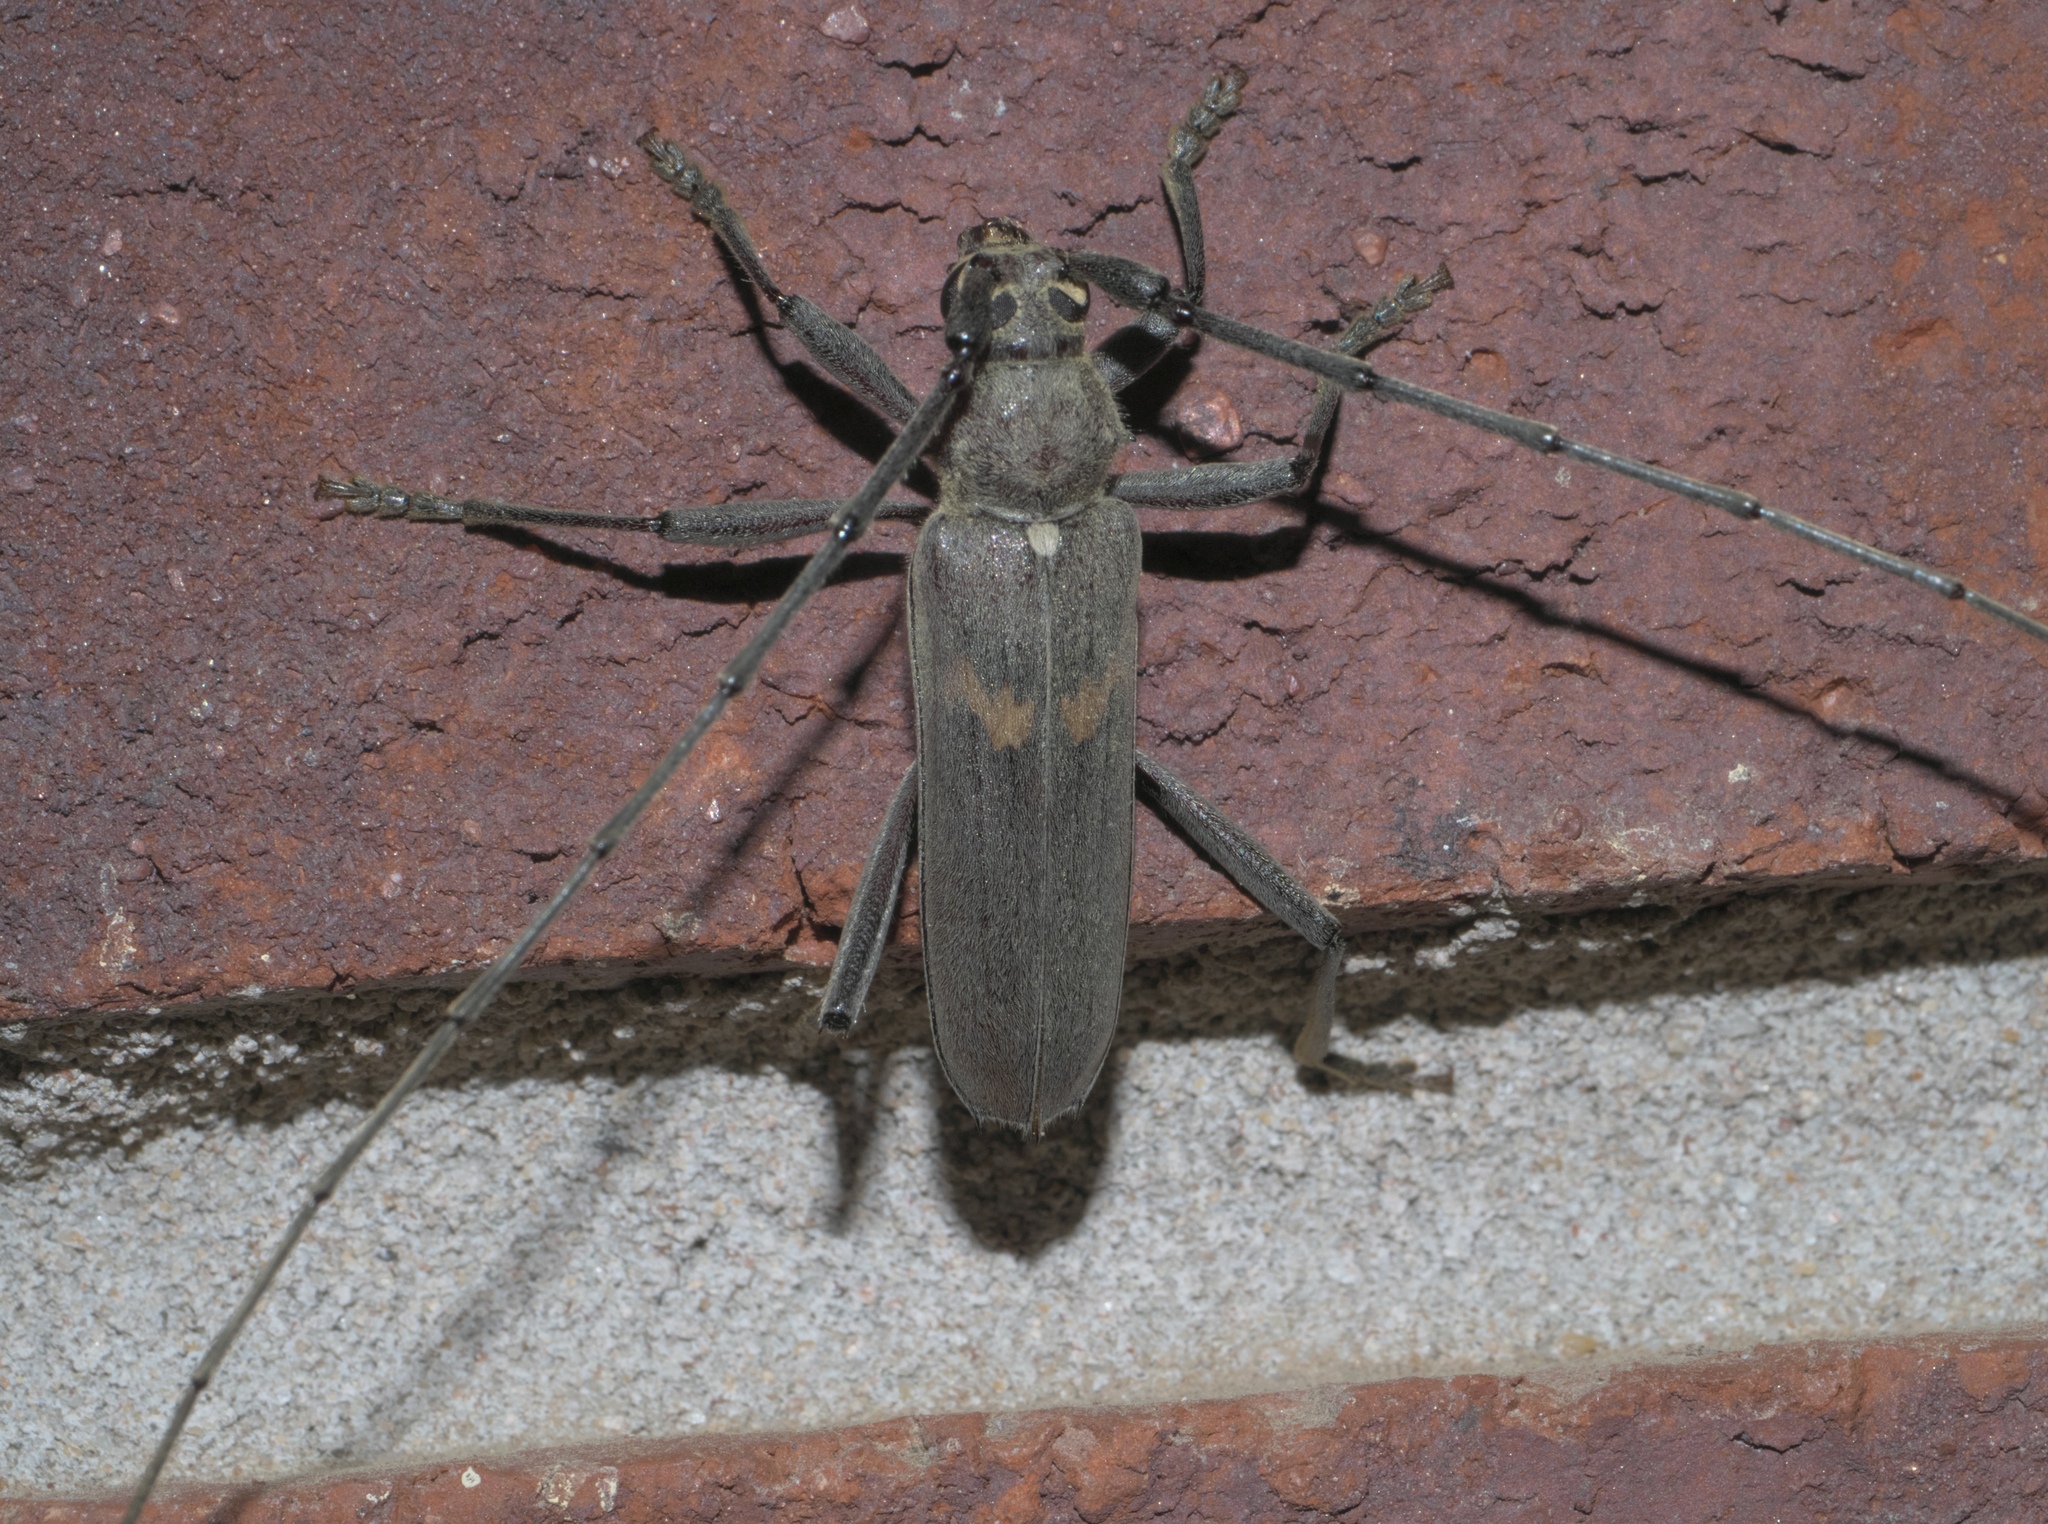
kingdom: Animalia
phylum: Arthropoda
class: Insecta
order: Coleoptera
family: Cerambycidae
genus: Knulliana
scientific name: Knulliana cincta
